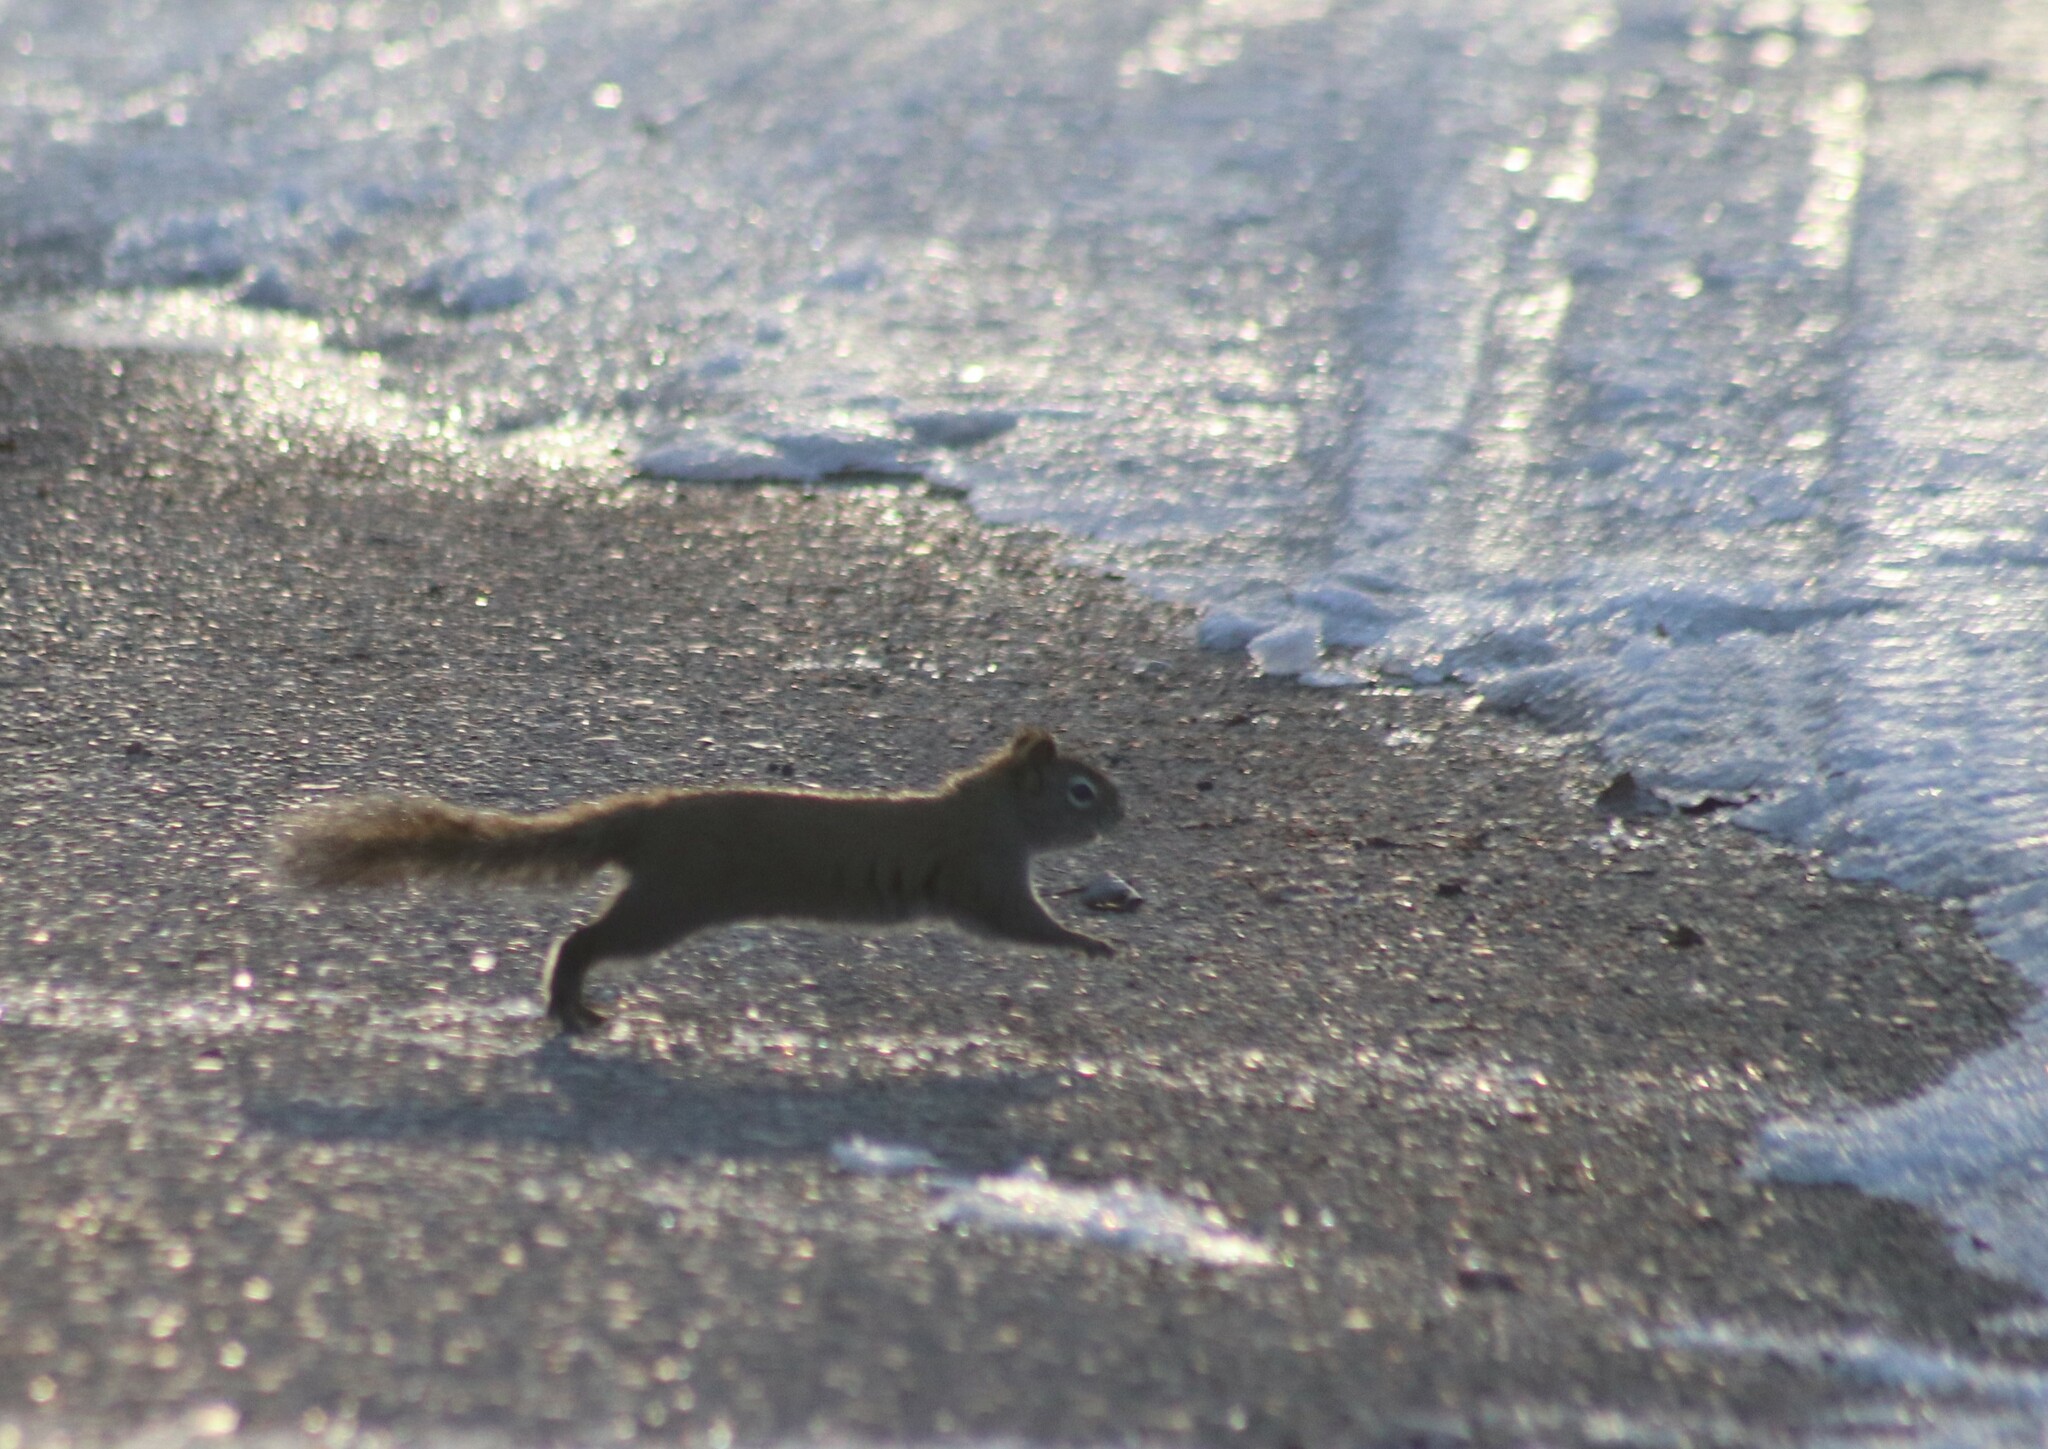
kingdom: Animalia
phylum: Chordata
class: Mammalia
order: Rodentia
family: Sciuridae
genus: Tamiasciurus
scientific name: Tamiasciurus hudsonicus
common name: Red squirrel
